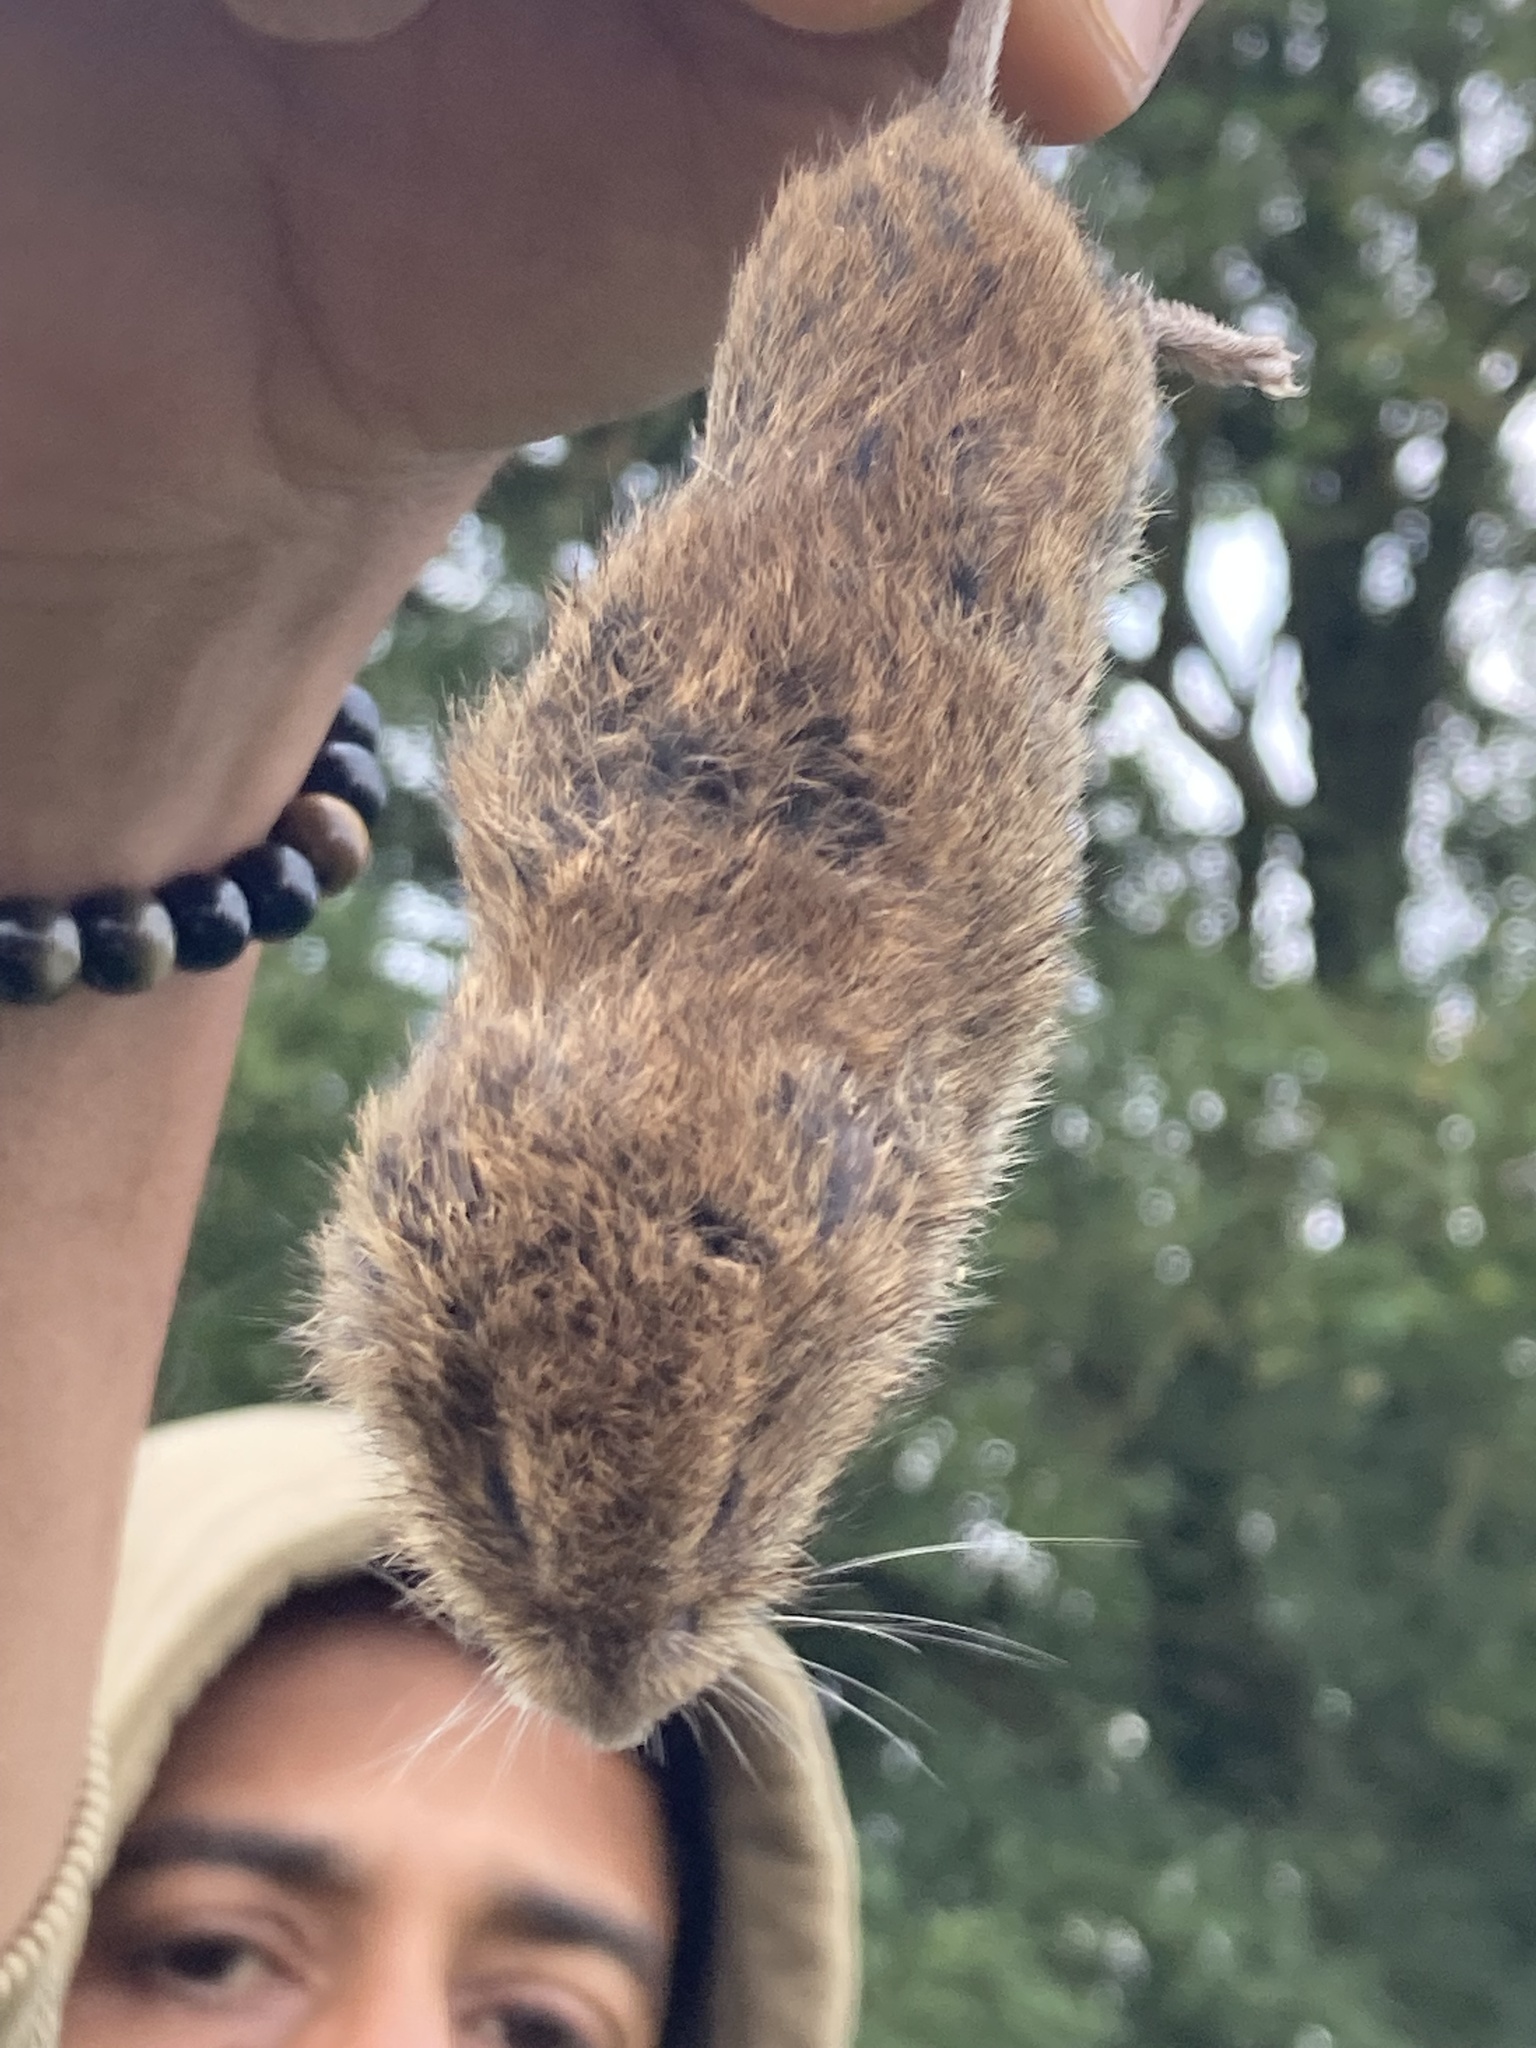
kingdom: Animalia
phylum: Chordata
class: Mammalia
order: Rodentia
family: Cricetidae
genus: Microtus
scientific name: Microtus agrestis
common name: Field vole
